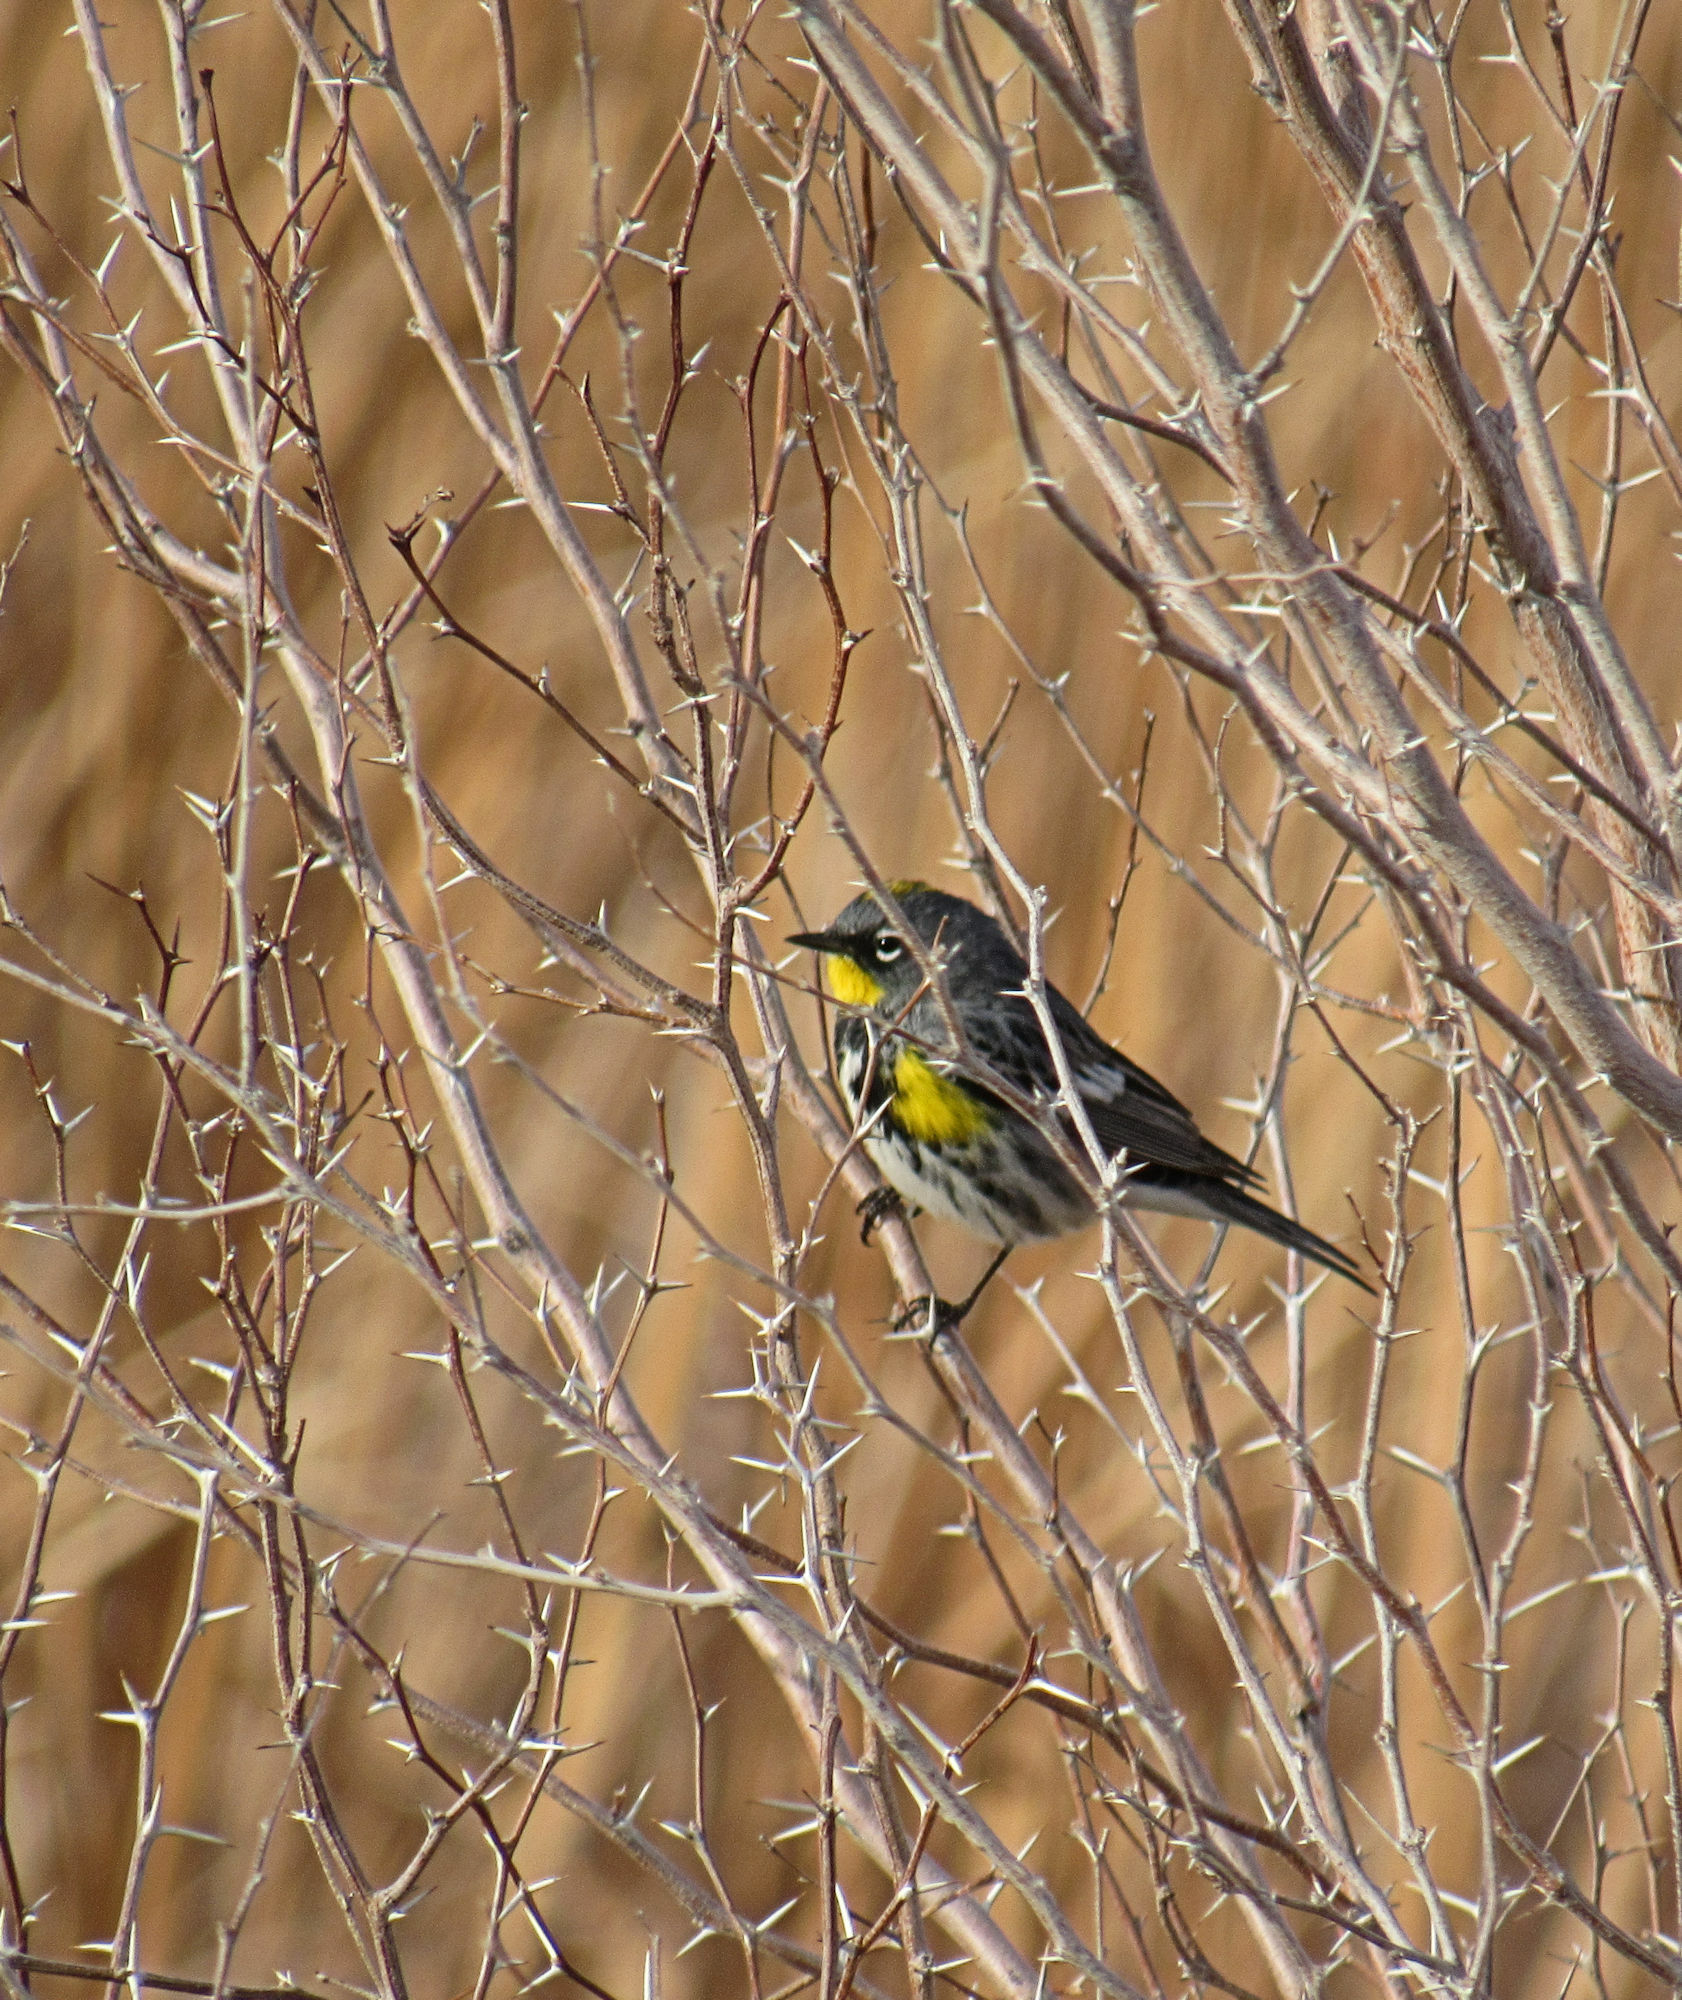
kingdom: Animalia
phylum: Chordata
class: Aves
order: Passeriformes
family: Parulidae
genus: Setophaga
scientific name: Setophaga auduboni
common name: Audubon's warbler
